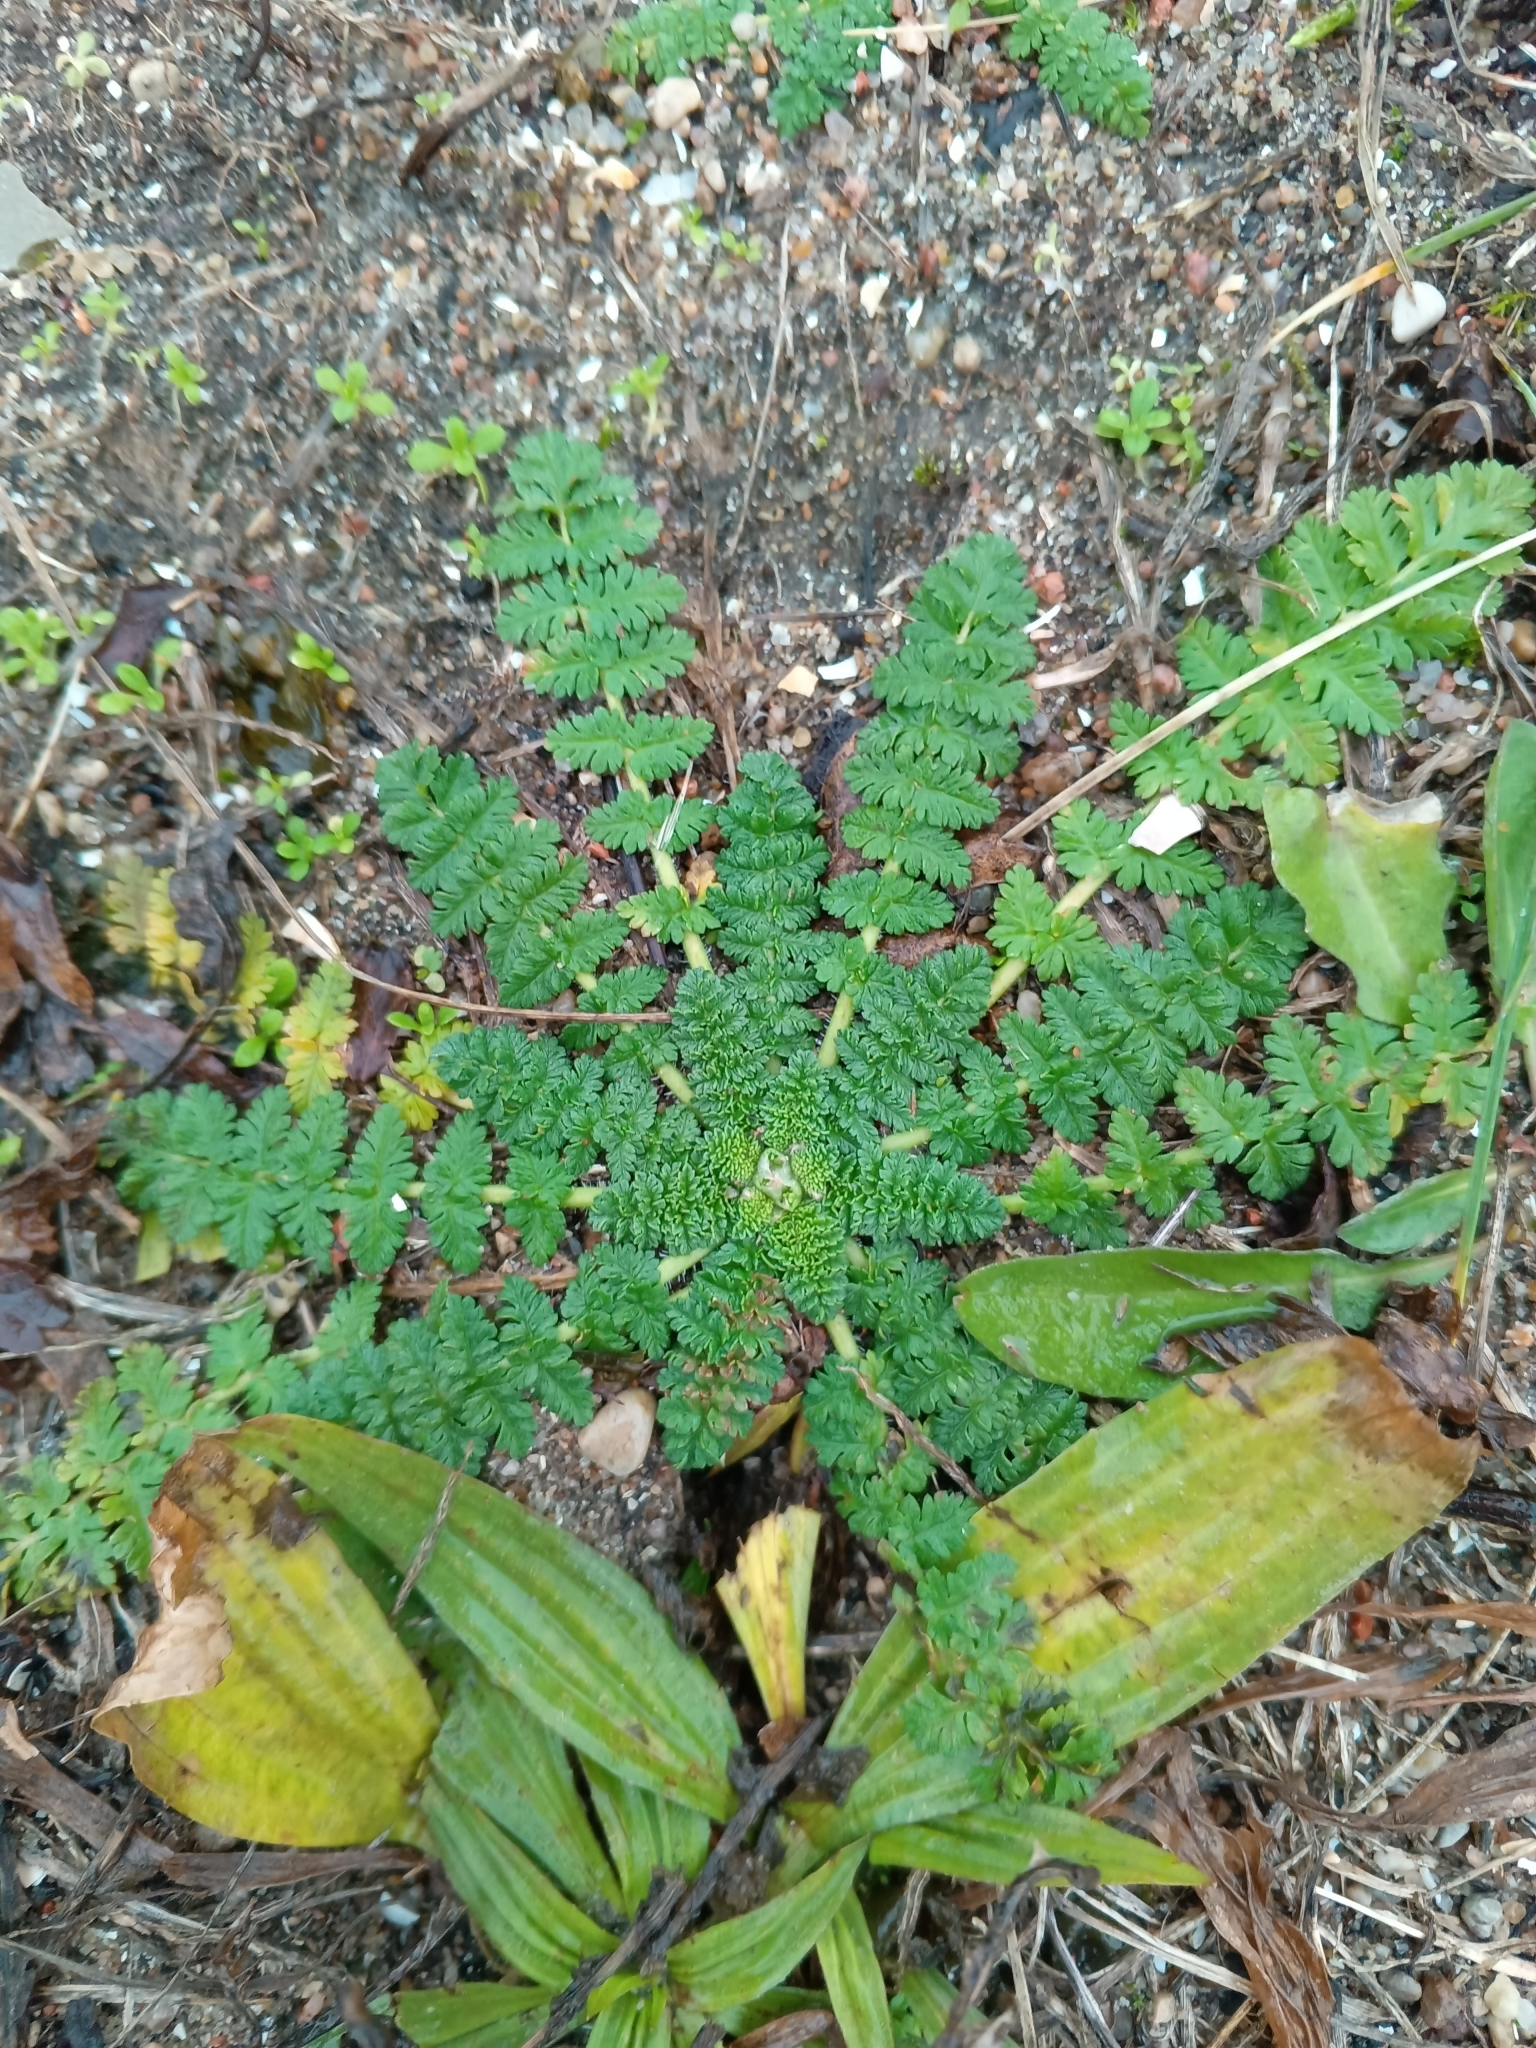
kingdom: Plantae
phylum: Tracheophyta
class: Magnoliopsida
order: Geraniales
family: Geraniaceae
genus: Erodium
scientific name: Erodium cicutarium
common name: Common stork's-bill
